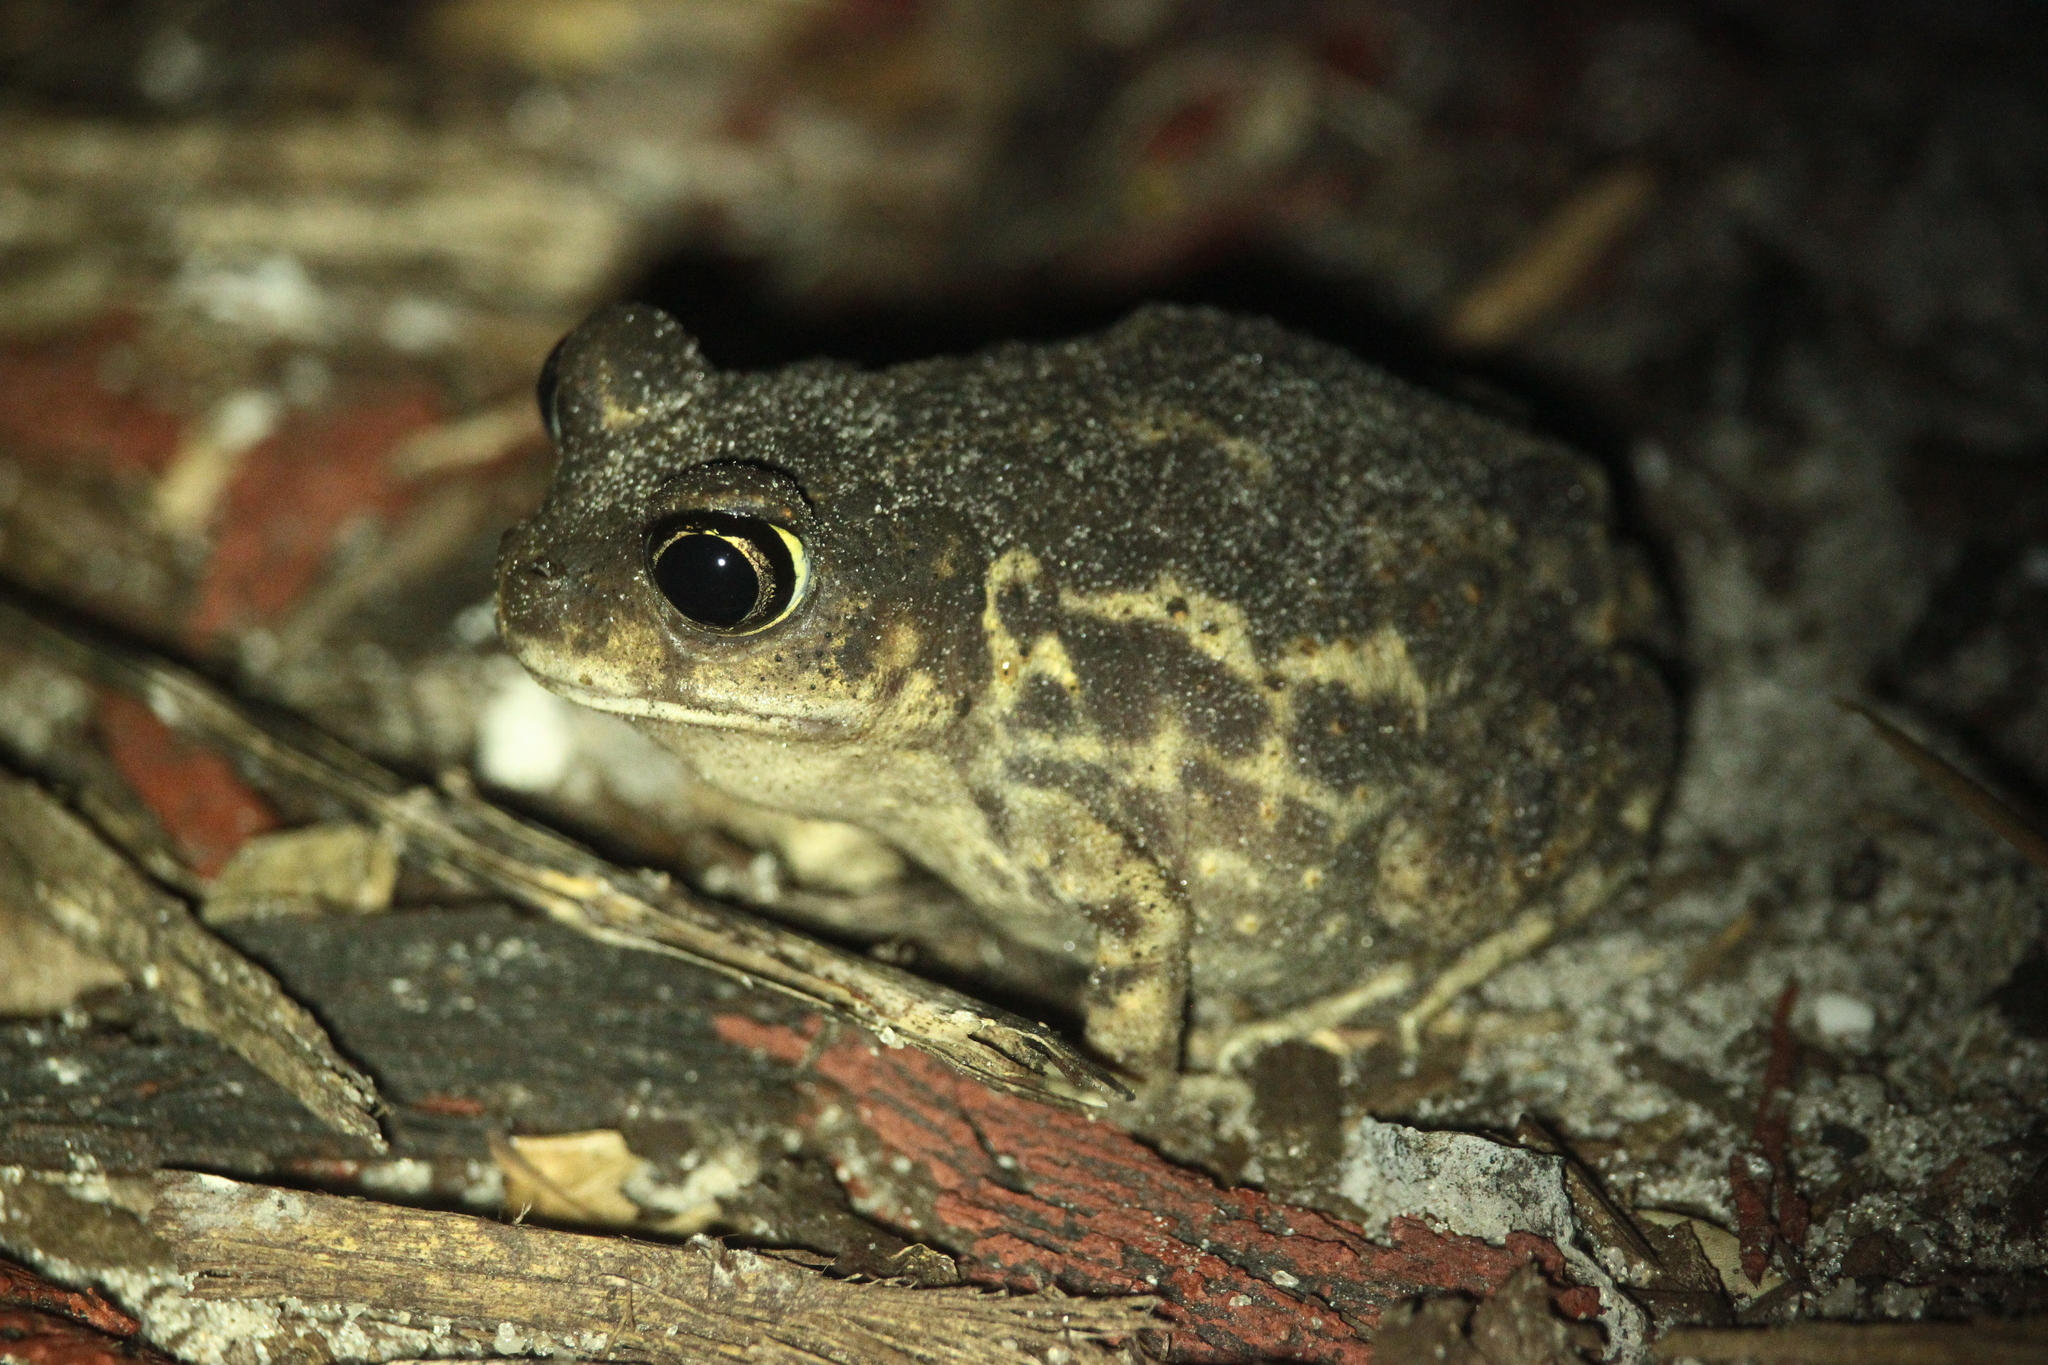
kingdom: Animalia
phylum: Chordata
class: Amphibia
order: Anura
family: Scaphiopodidae
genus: Scaphiopus
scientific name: Scaphiopus holbrookii
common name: Eastern spadefoot toad
